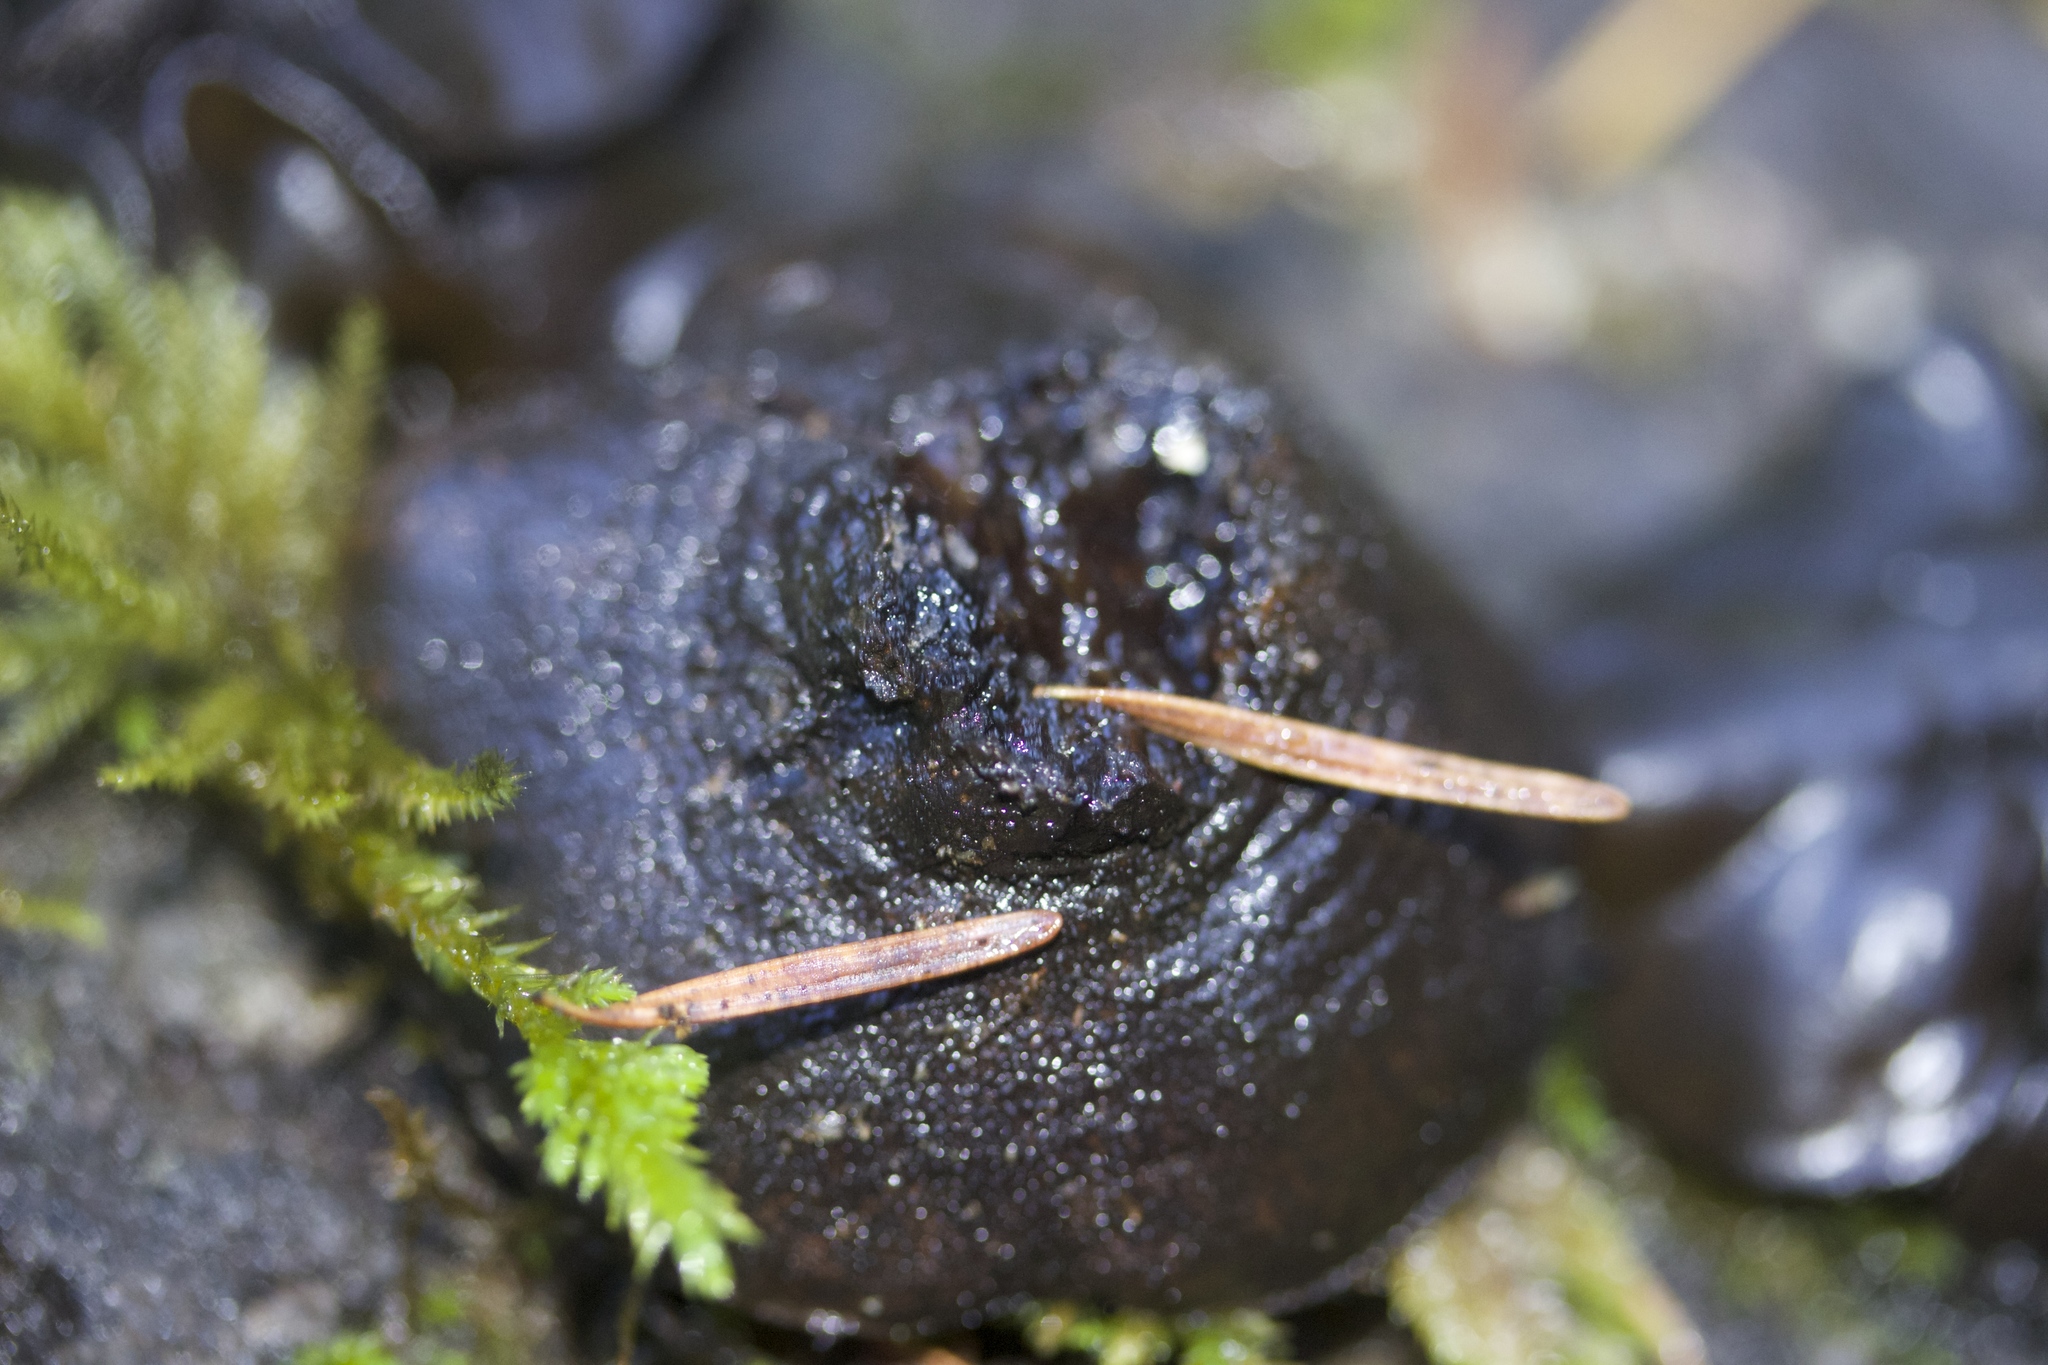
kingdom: Fungi
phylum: Ascomycota
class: Leotiomycetes
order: Phacidiales
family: Phacidiaceae
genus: Bulgaria
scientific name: Bulgaria inquinans
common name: Black bulgar
